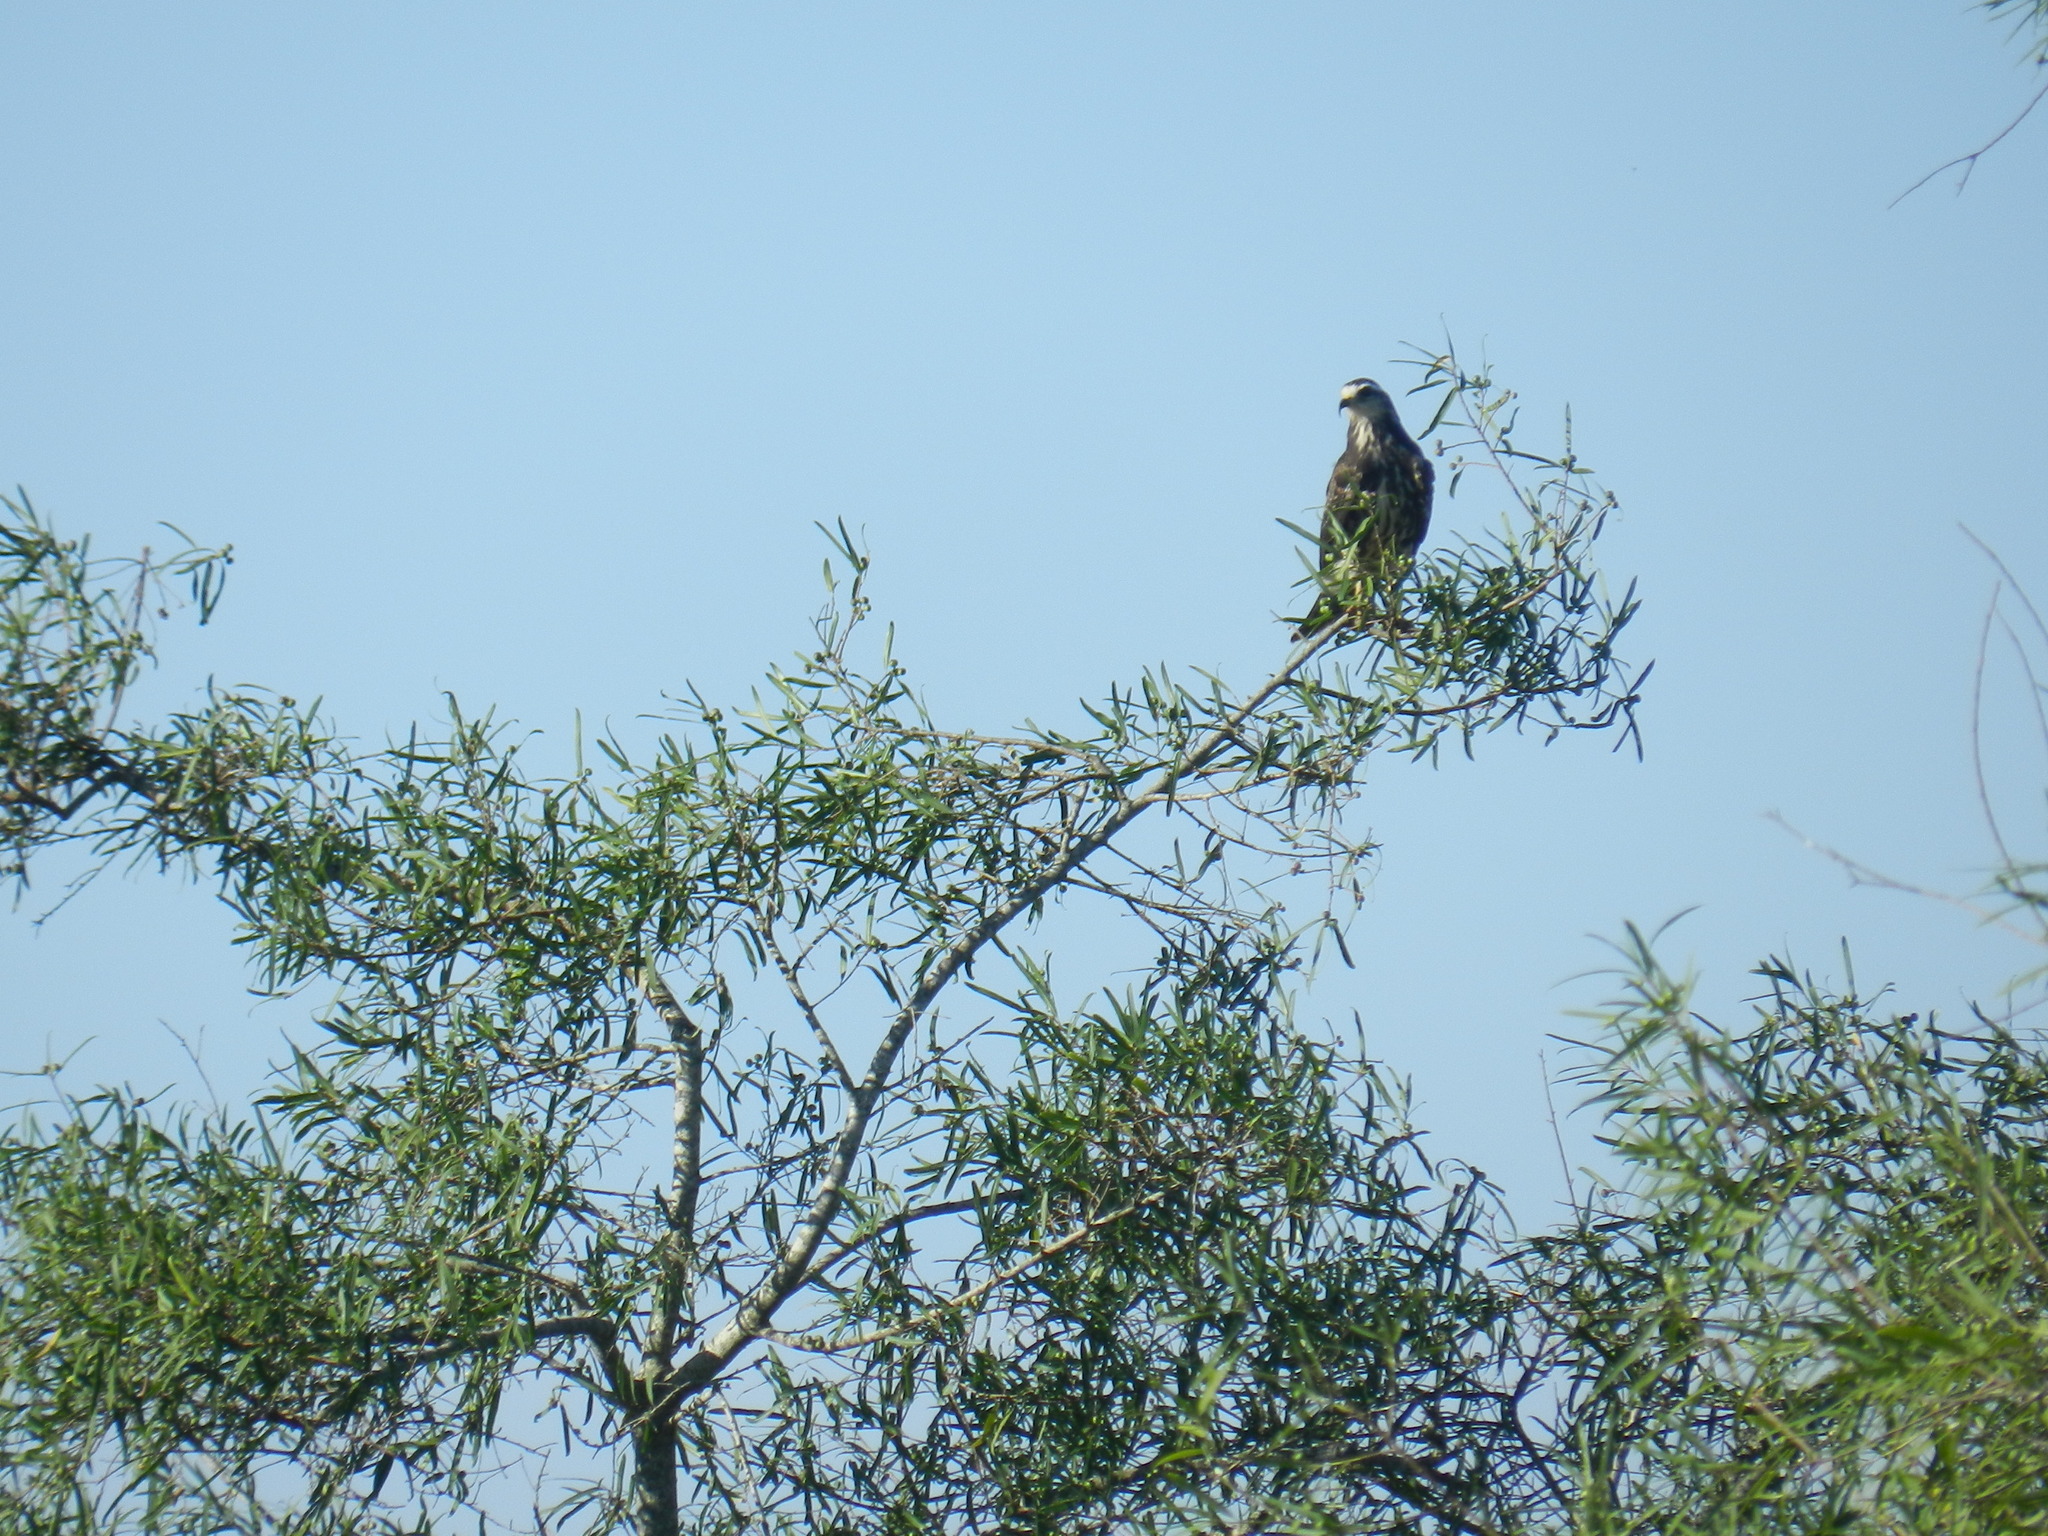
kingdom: Animalia
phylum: Chordata
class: Aves
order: Accipitriformes
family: Accipitridae
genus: Rostrhamus
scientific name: Rostrhamus sociabilis
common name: Snail kite
